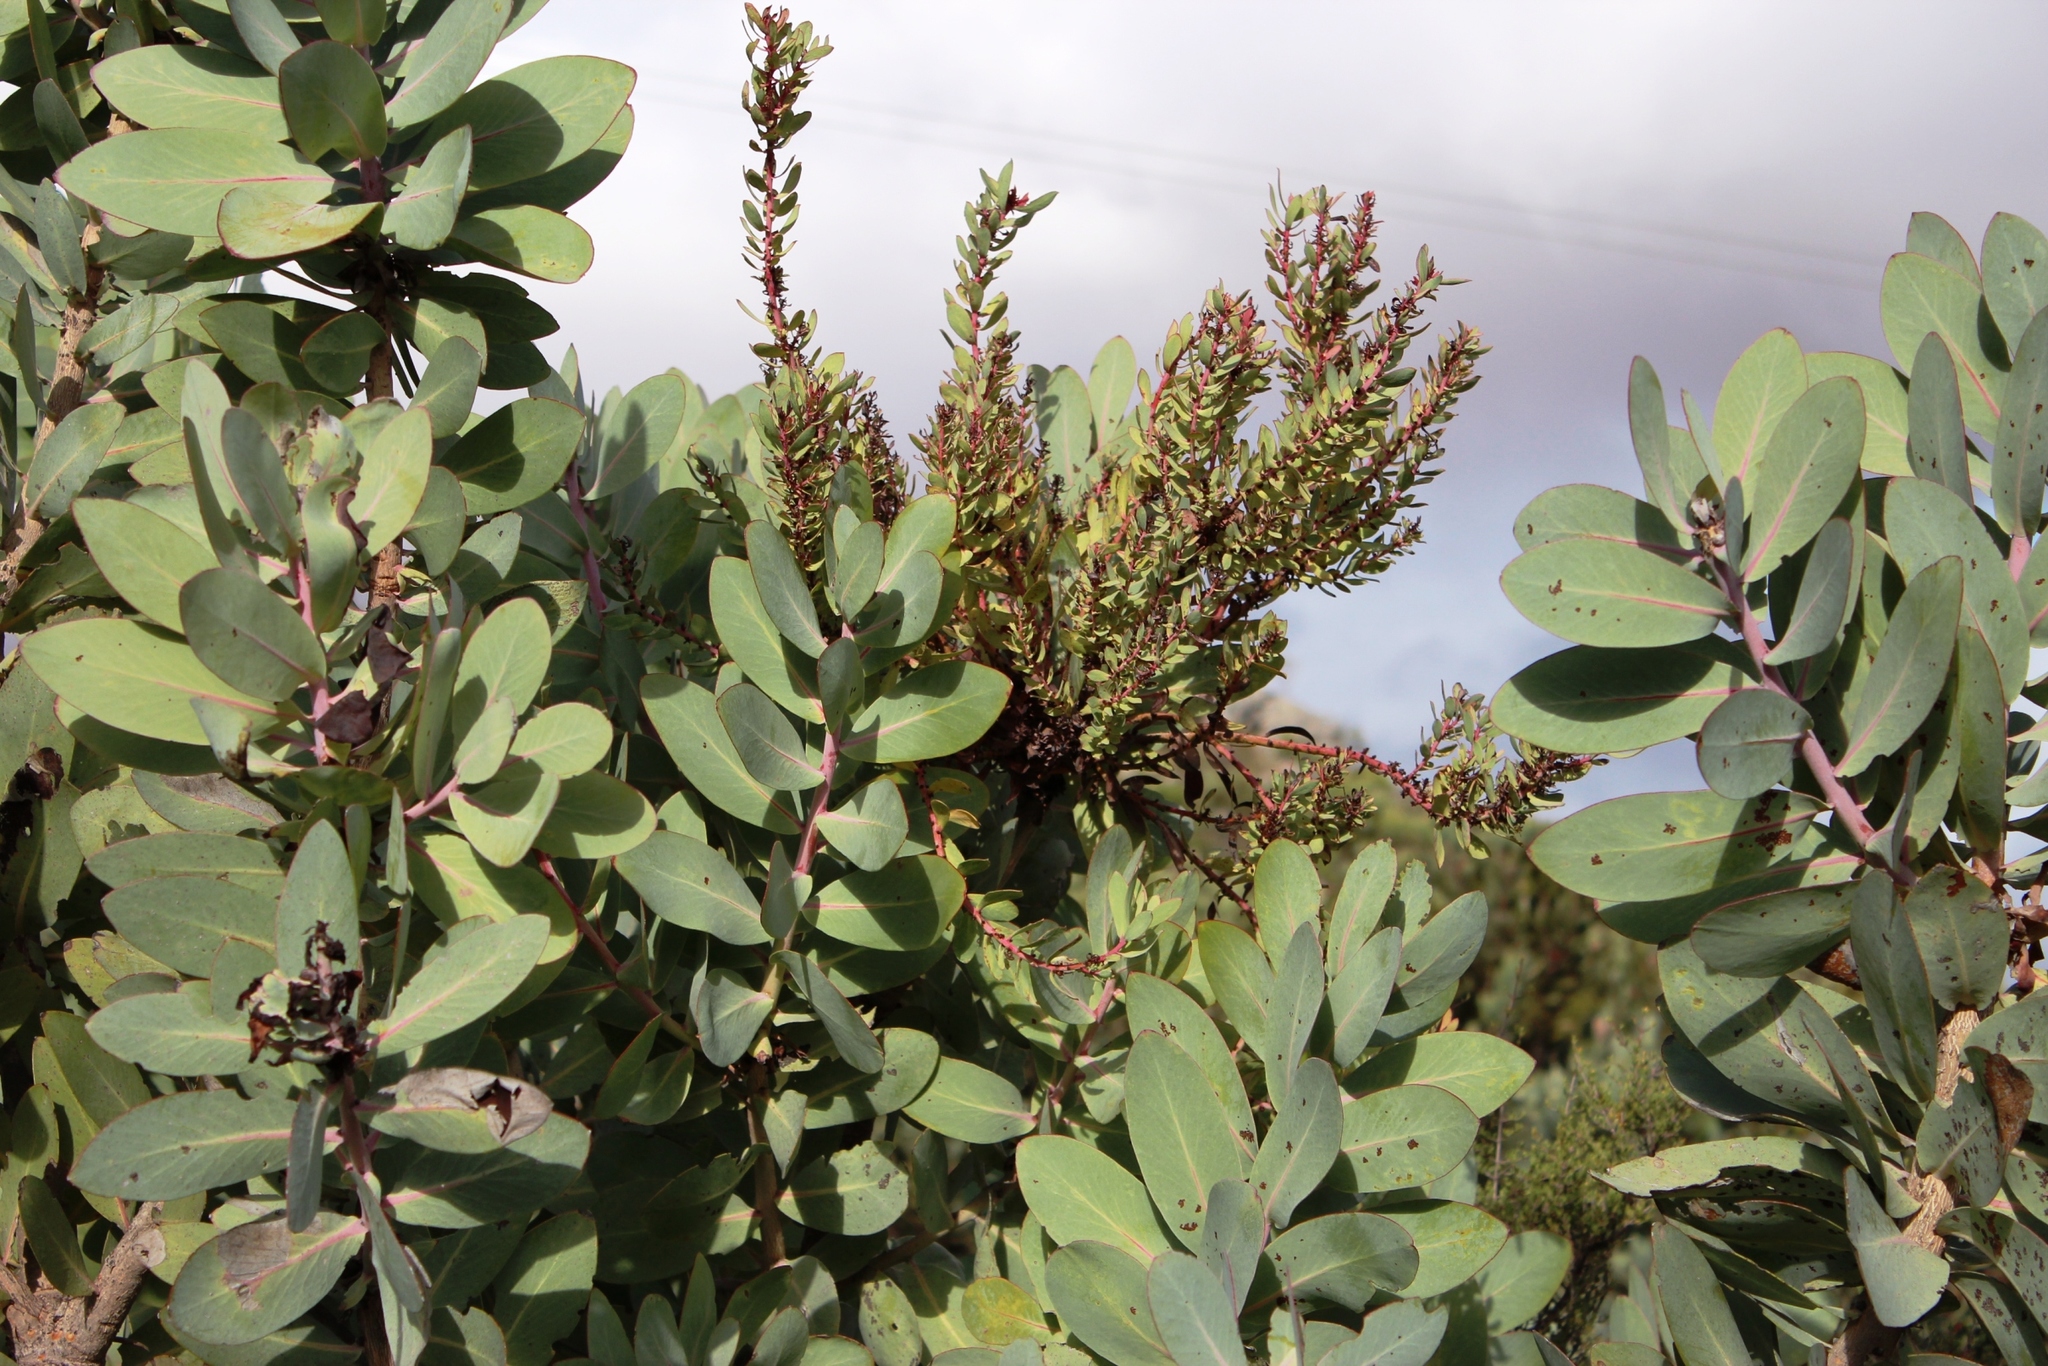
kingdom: Bacteria
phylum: Firmicutes
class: Bacilli
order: Acholeplasmatales
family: Acholeplasmataceae
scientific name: Acholeplasmataceae
